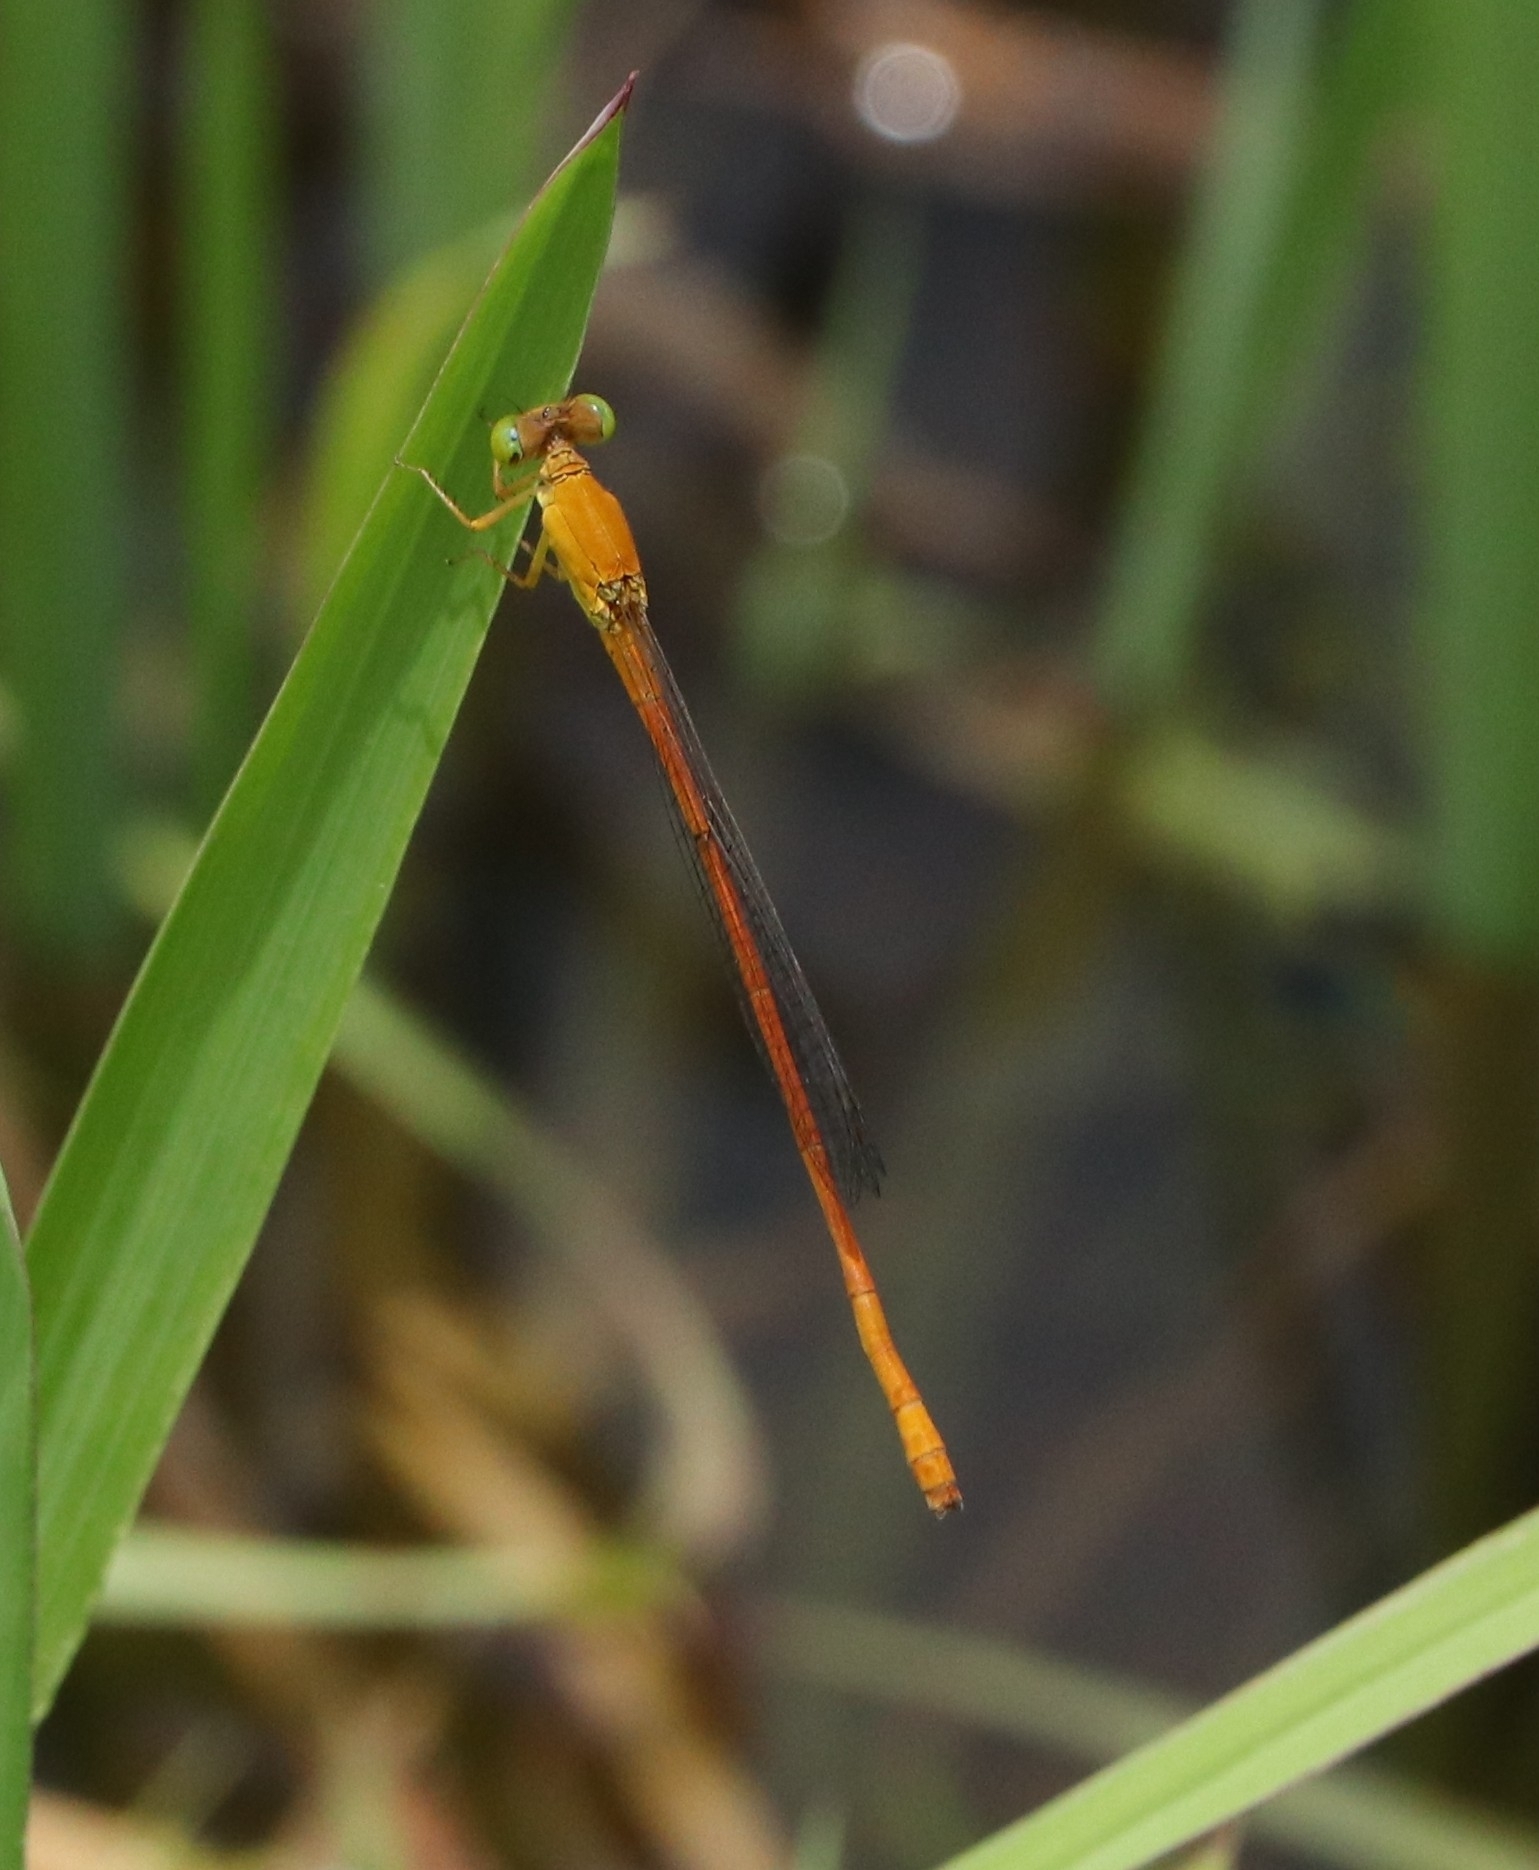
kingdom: Animalia
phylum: Arthropoda
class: Insecta
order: Odonata
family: Coenagrionidae
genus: Ceriagrion
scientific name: Ceriagrion rubiae
